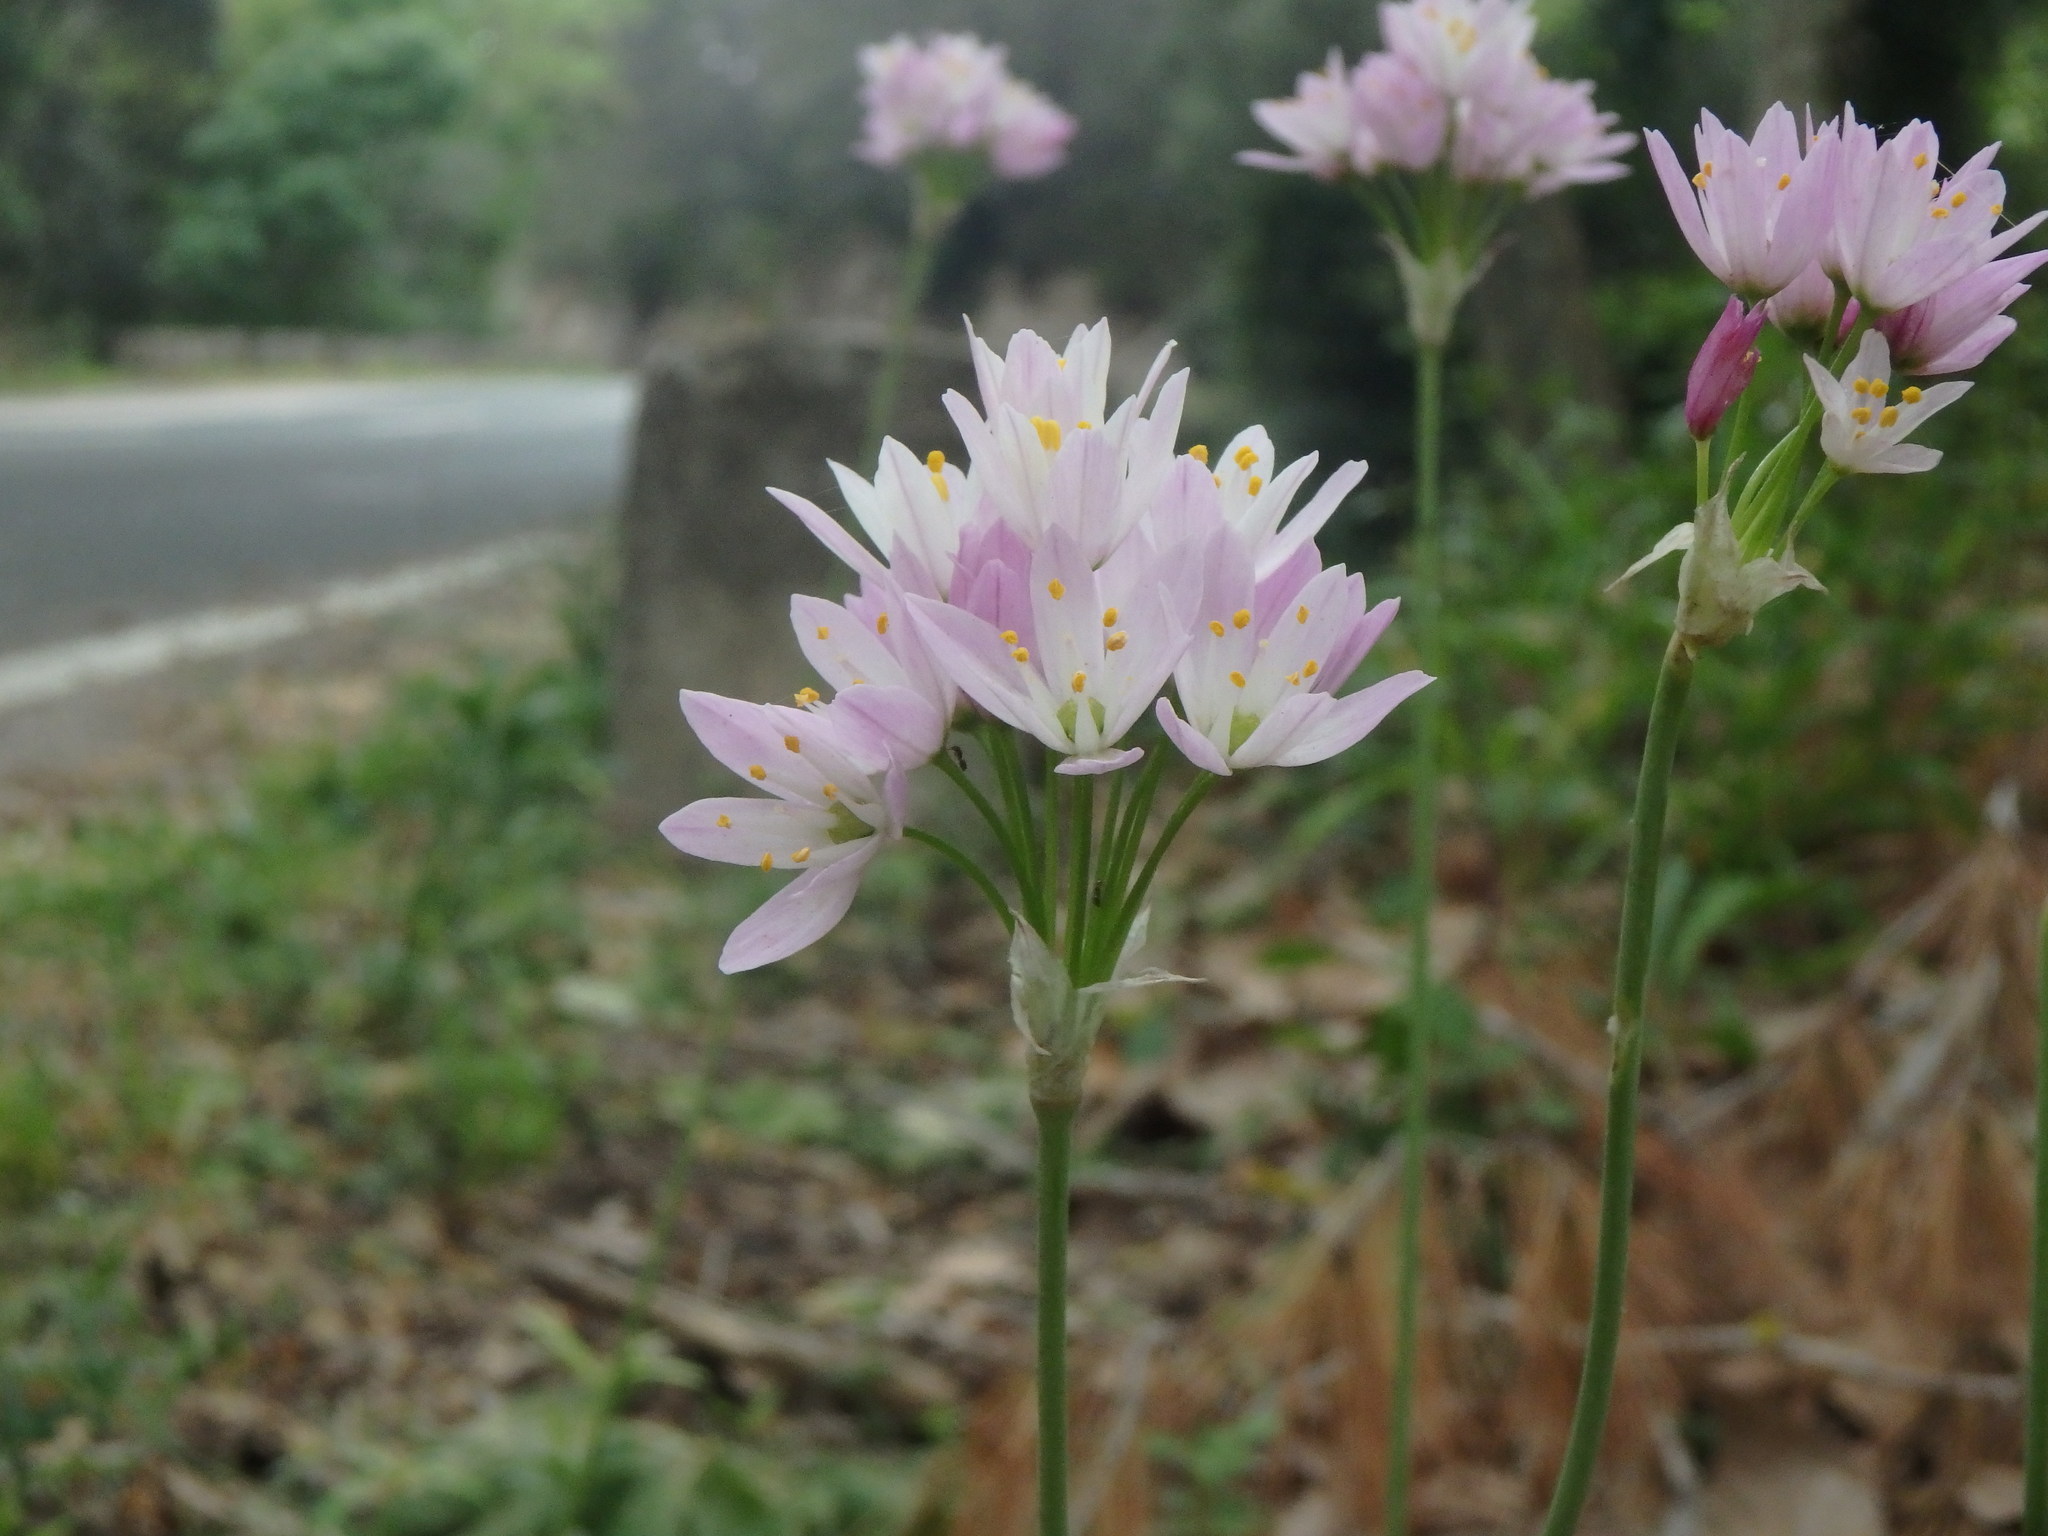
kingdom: Plantae
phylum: Tracheophyta
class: Liliopsida
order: Asparagales
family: Amaryllidaceae
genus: Allium
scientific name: Allium roseum
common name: Rosy garlic
